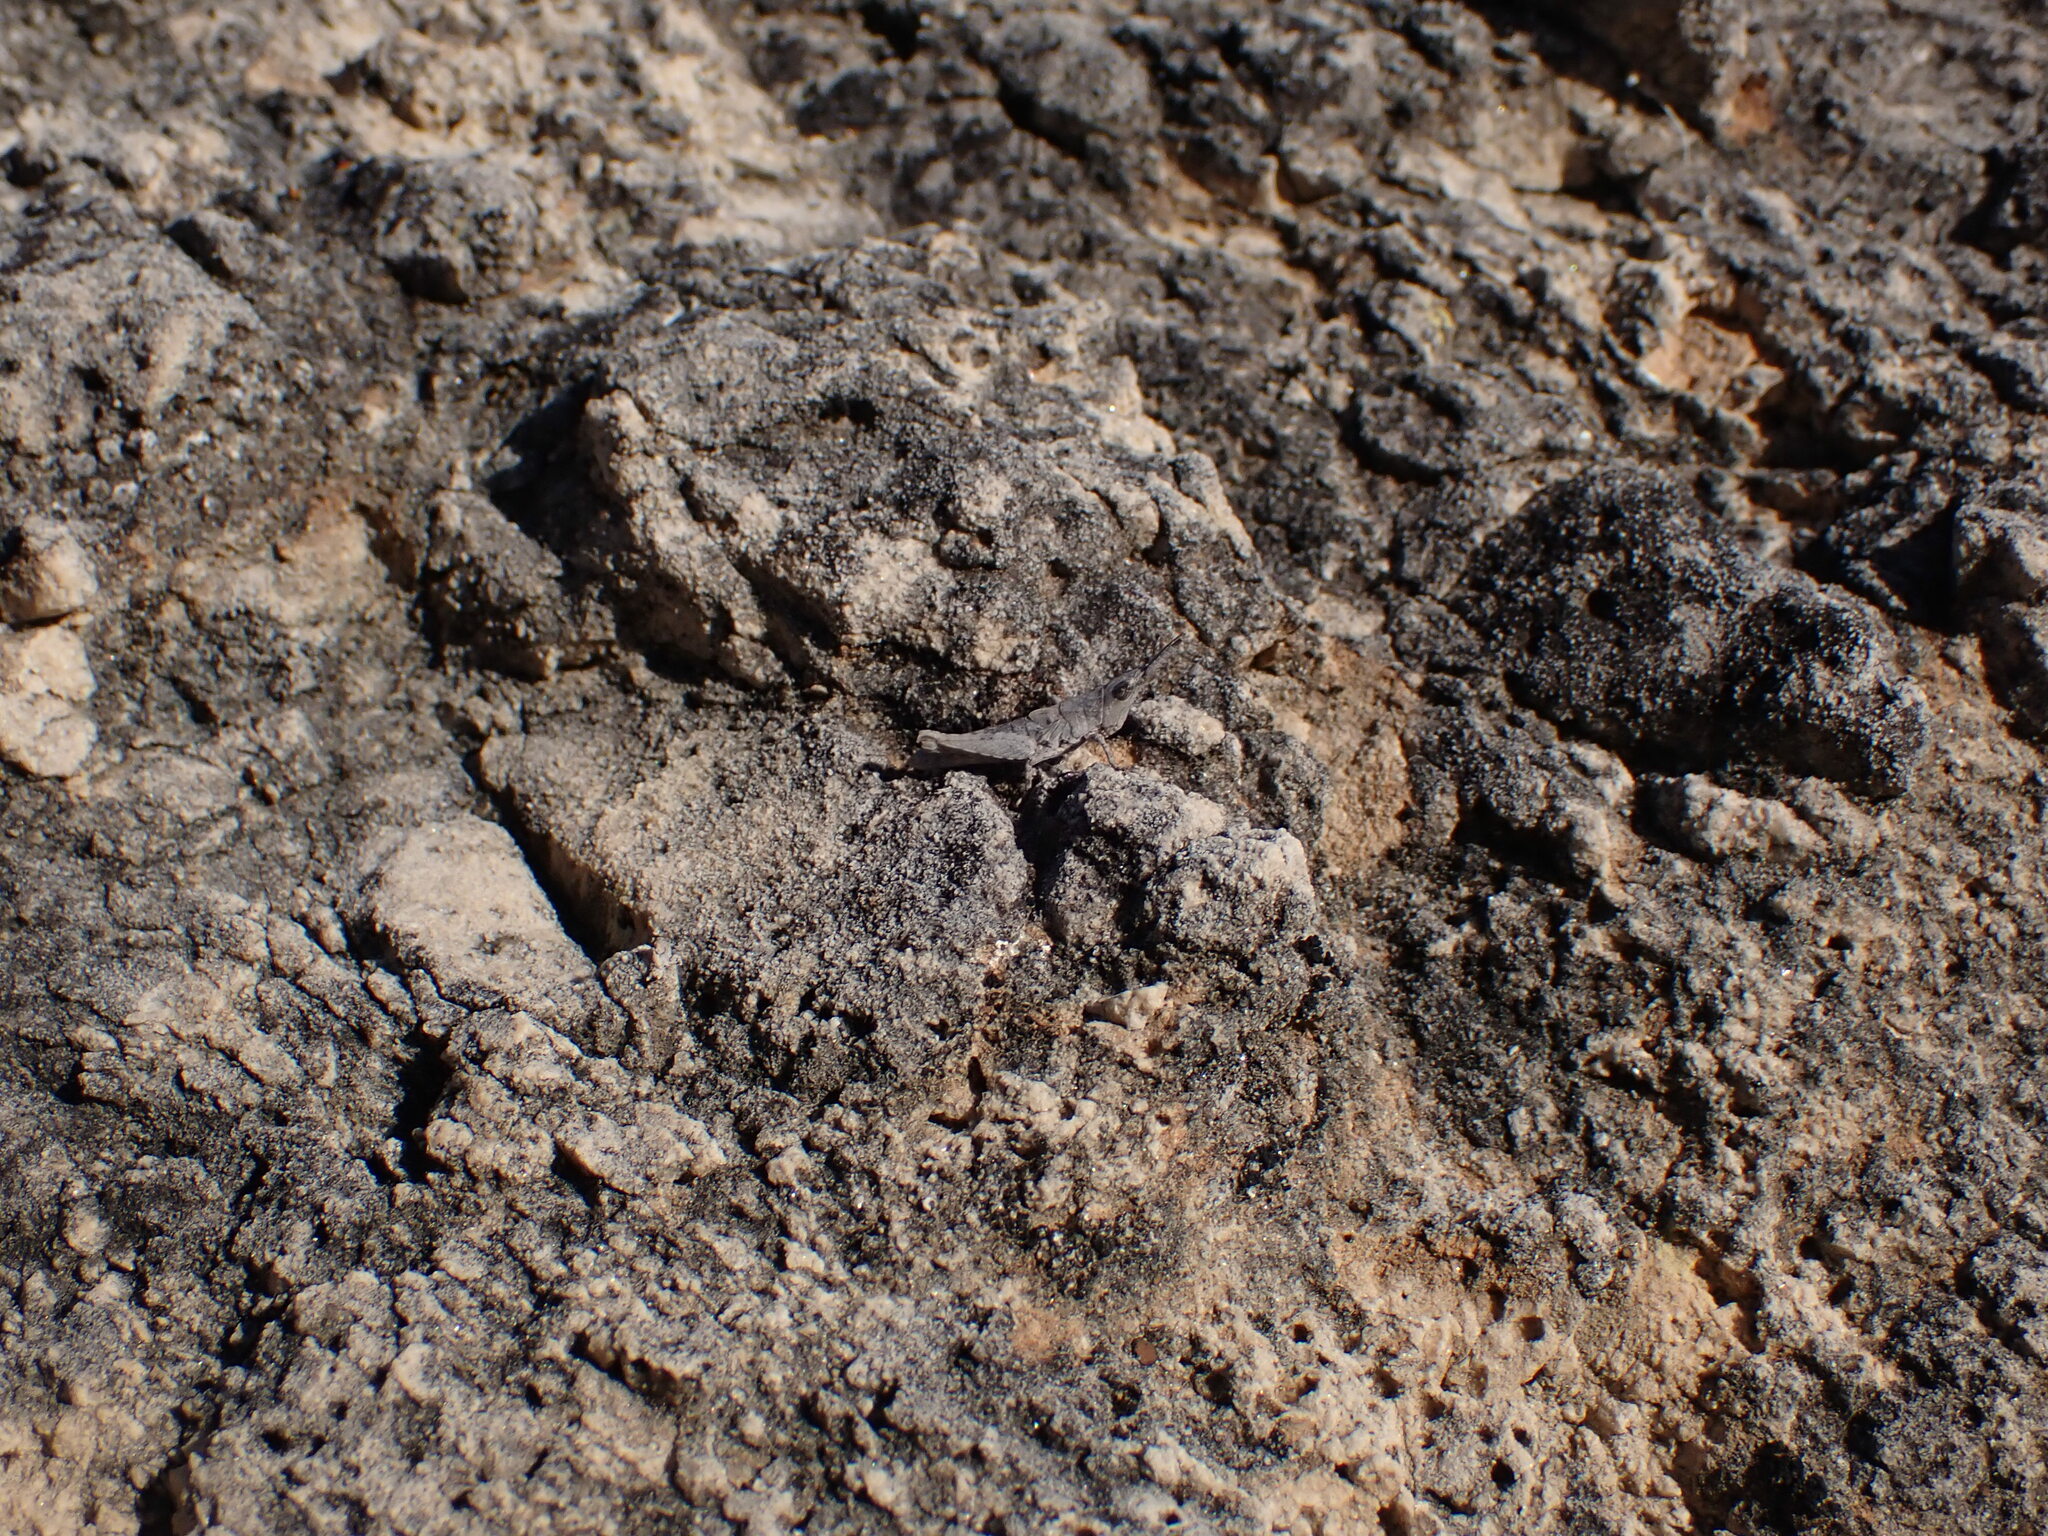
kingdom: Animalia
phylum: Arthropoda
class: Insecta
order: Orthoptera
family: Pyrgomorphidae
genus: Pyrgomorpha
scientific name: Pyrgomorpha conica
